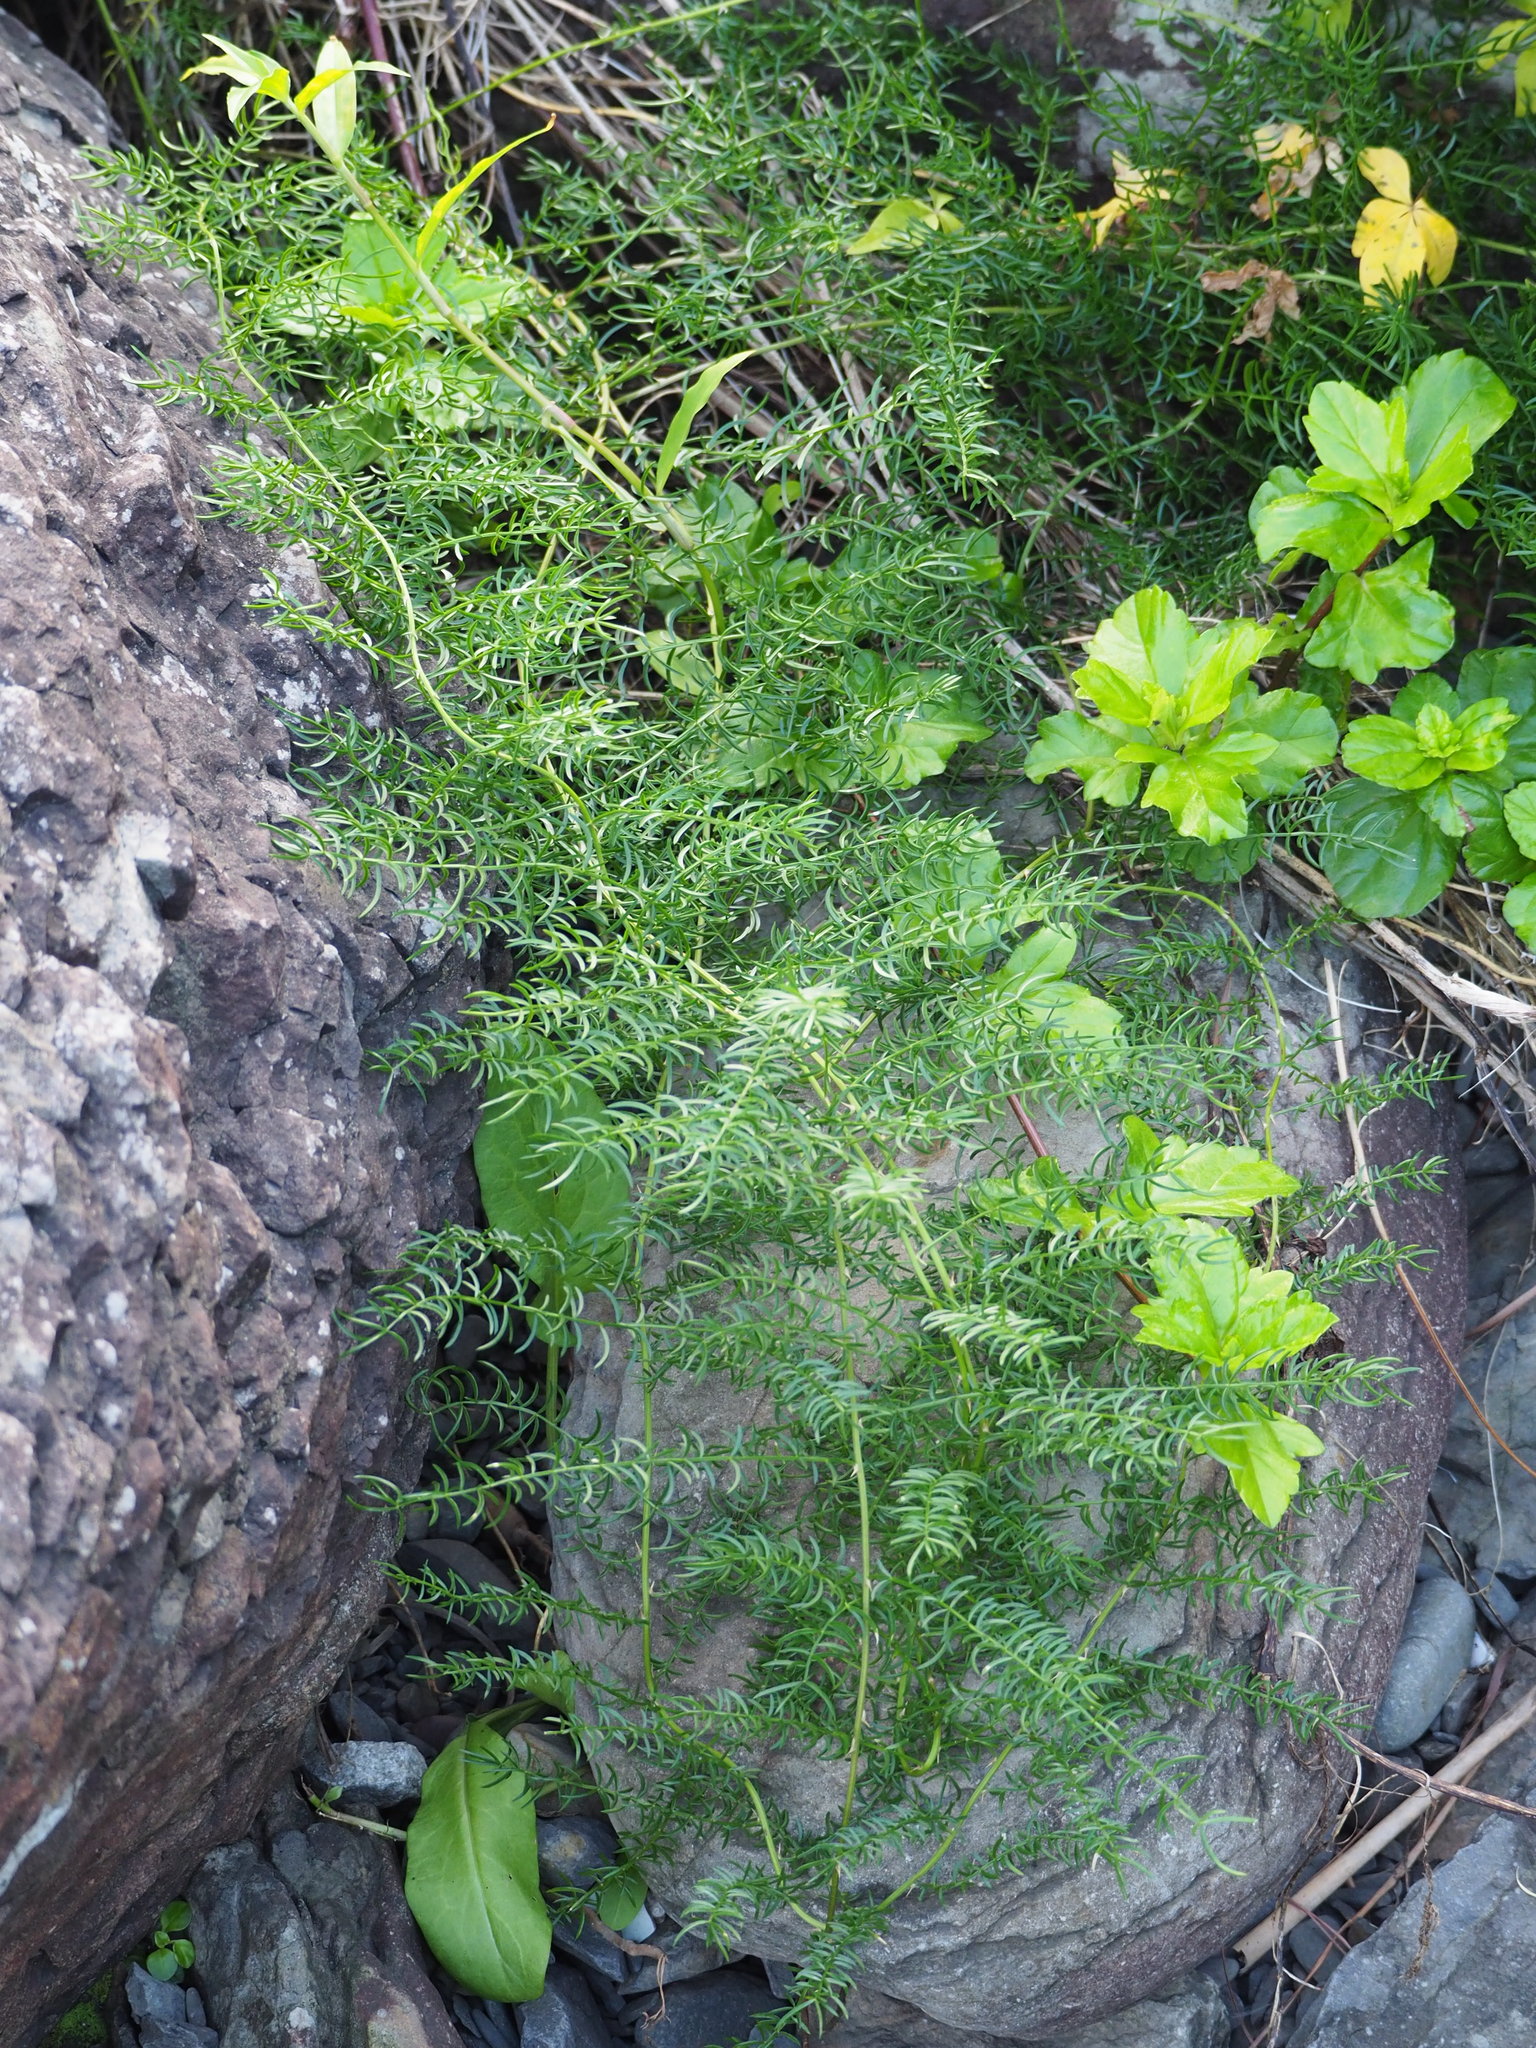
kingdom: Plantae
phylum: Tracheophyta
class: Liliopsida
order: Asparagales
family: Asparagaceae
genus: Asparagus
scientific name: Asparagus cochinchinensis
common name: Chinese asparagus
